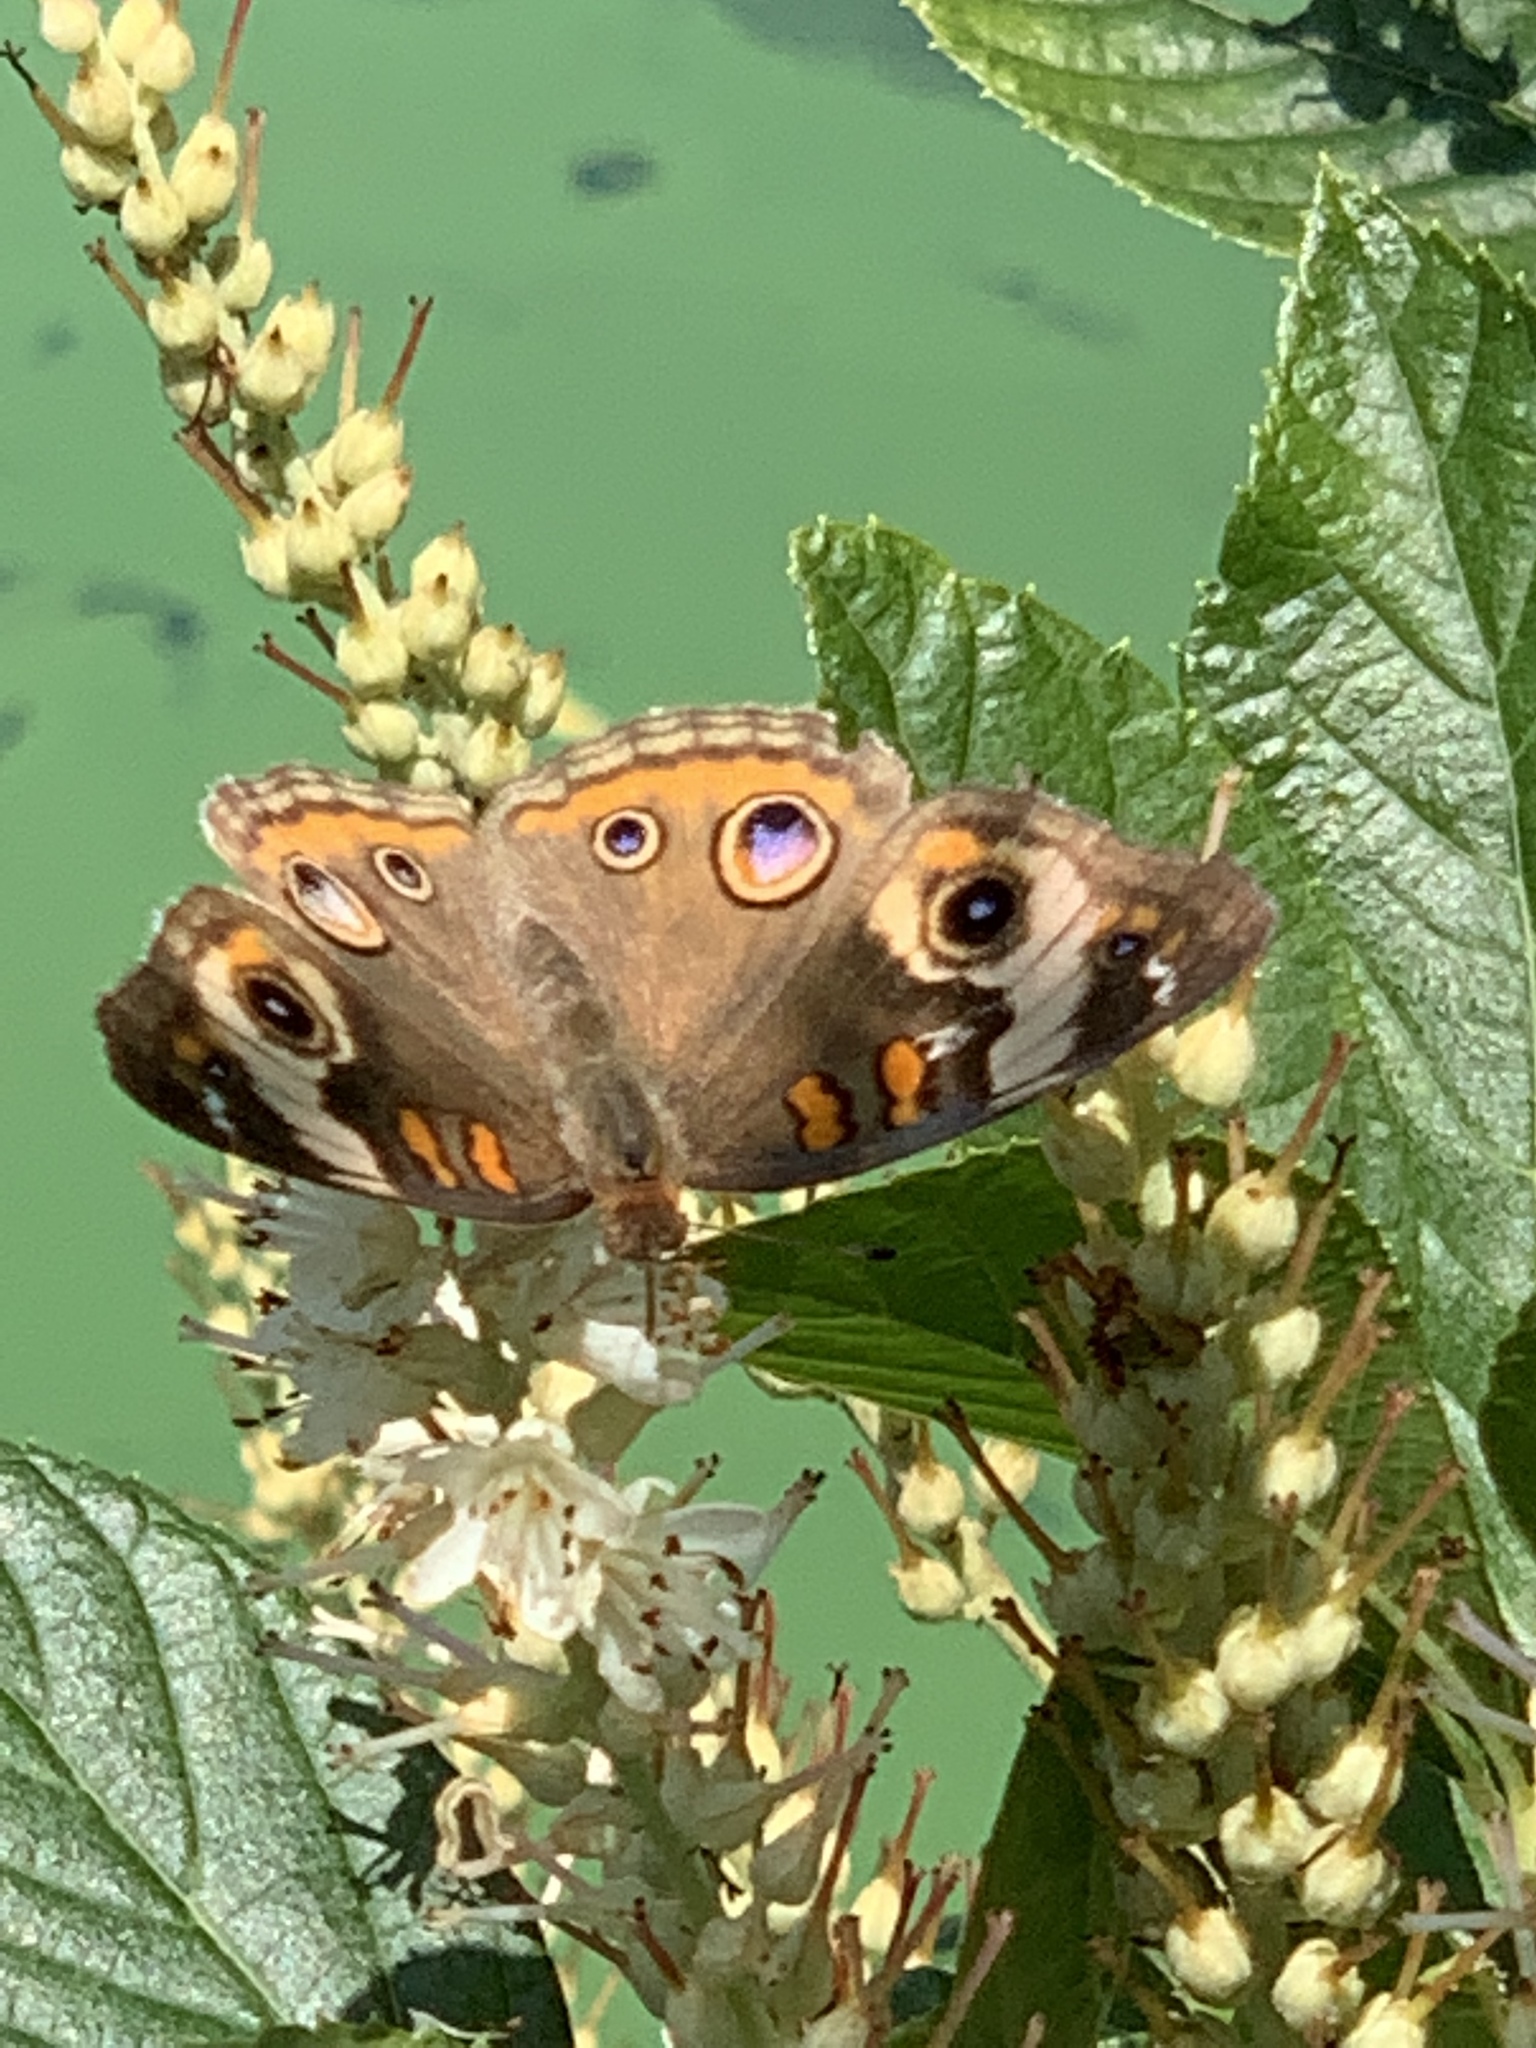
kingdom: Animalia
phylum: Arthropoda
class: Insecta
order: Lepidoptera
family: Nymphalidae
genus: Junonia
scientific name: Junonia coenia
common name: Common buckeye
